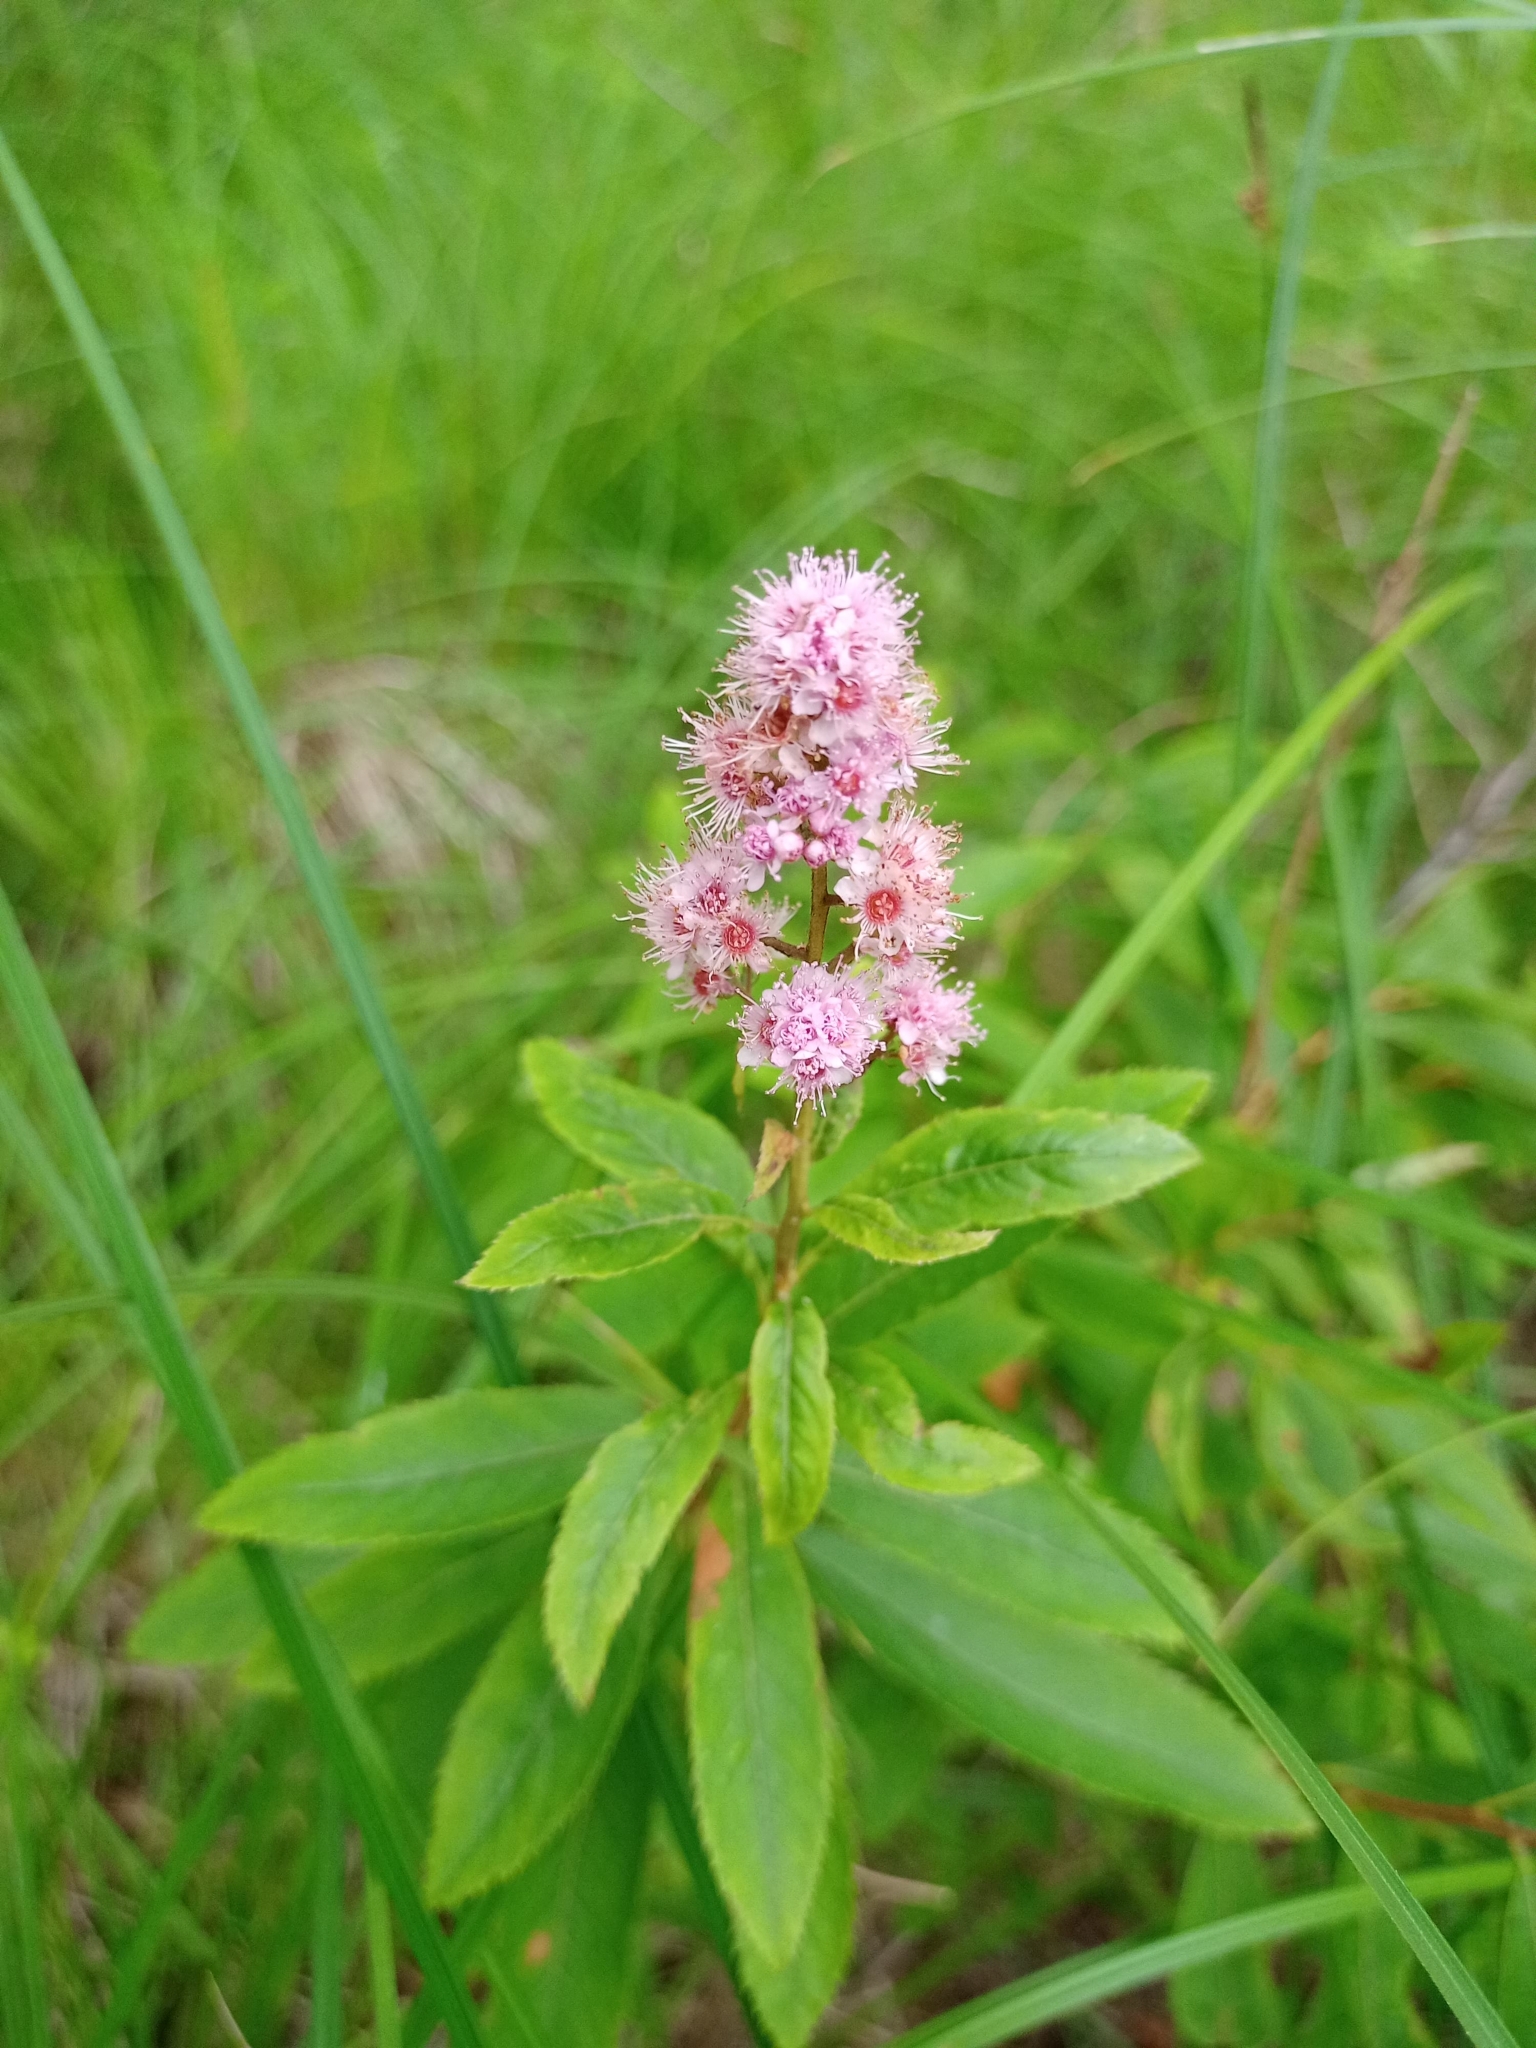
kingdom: Plantae
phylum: Tracheophyta
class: Magnoliopsida
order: Rosales
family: Rosaceae
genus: Spiraea
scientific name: Spiraea salicifolia
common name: Bridewort
